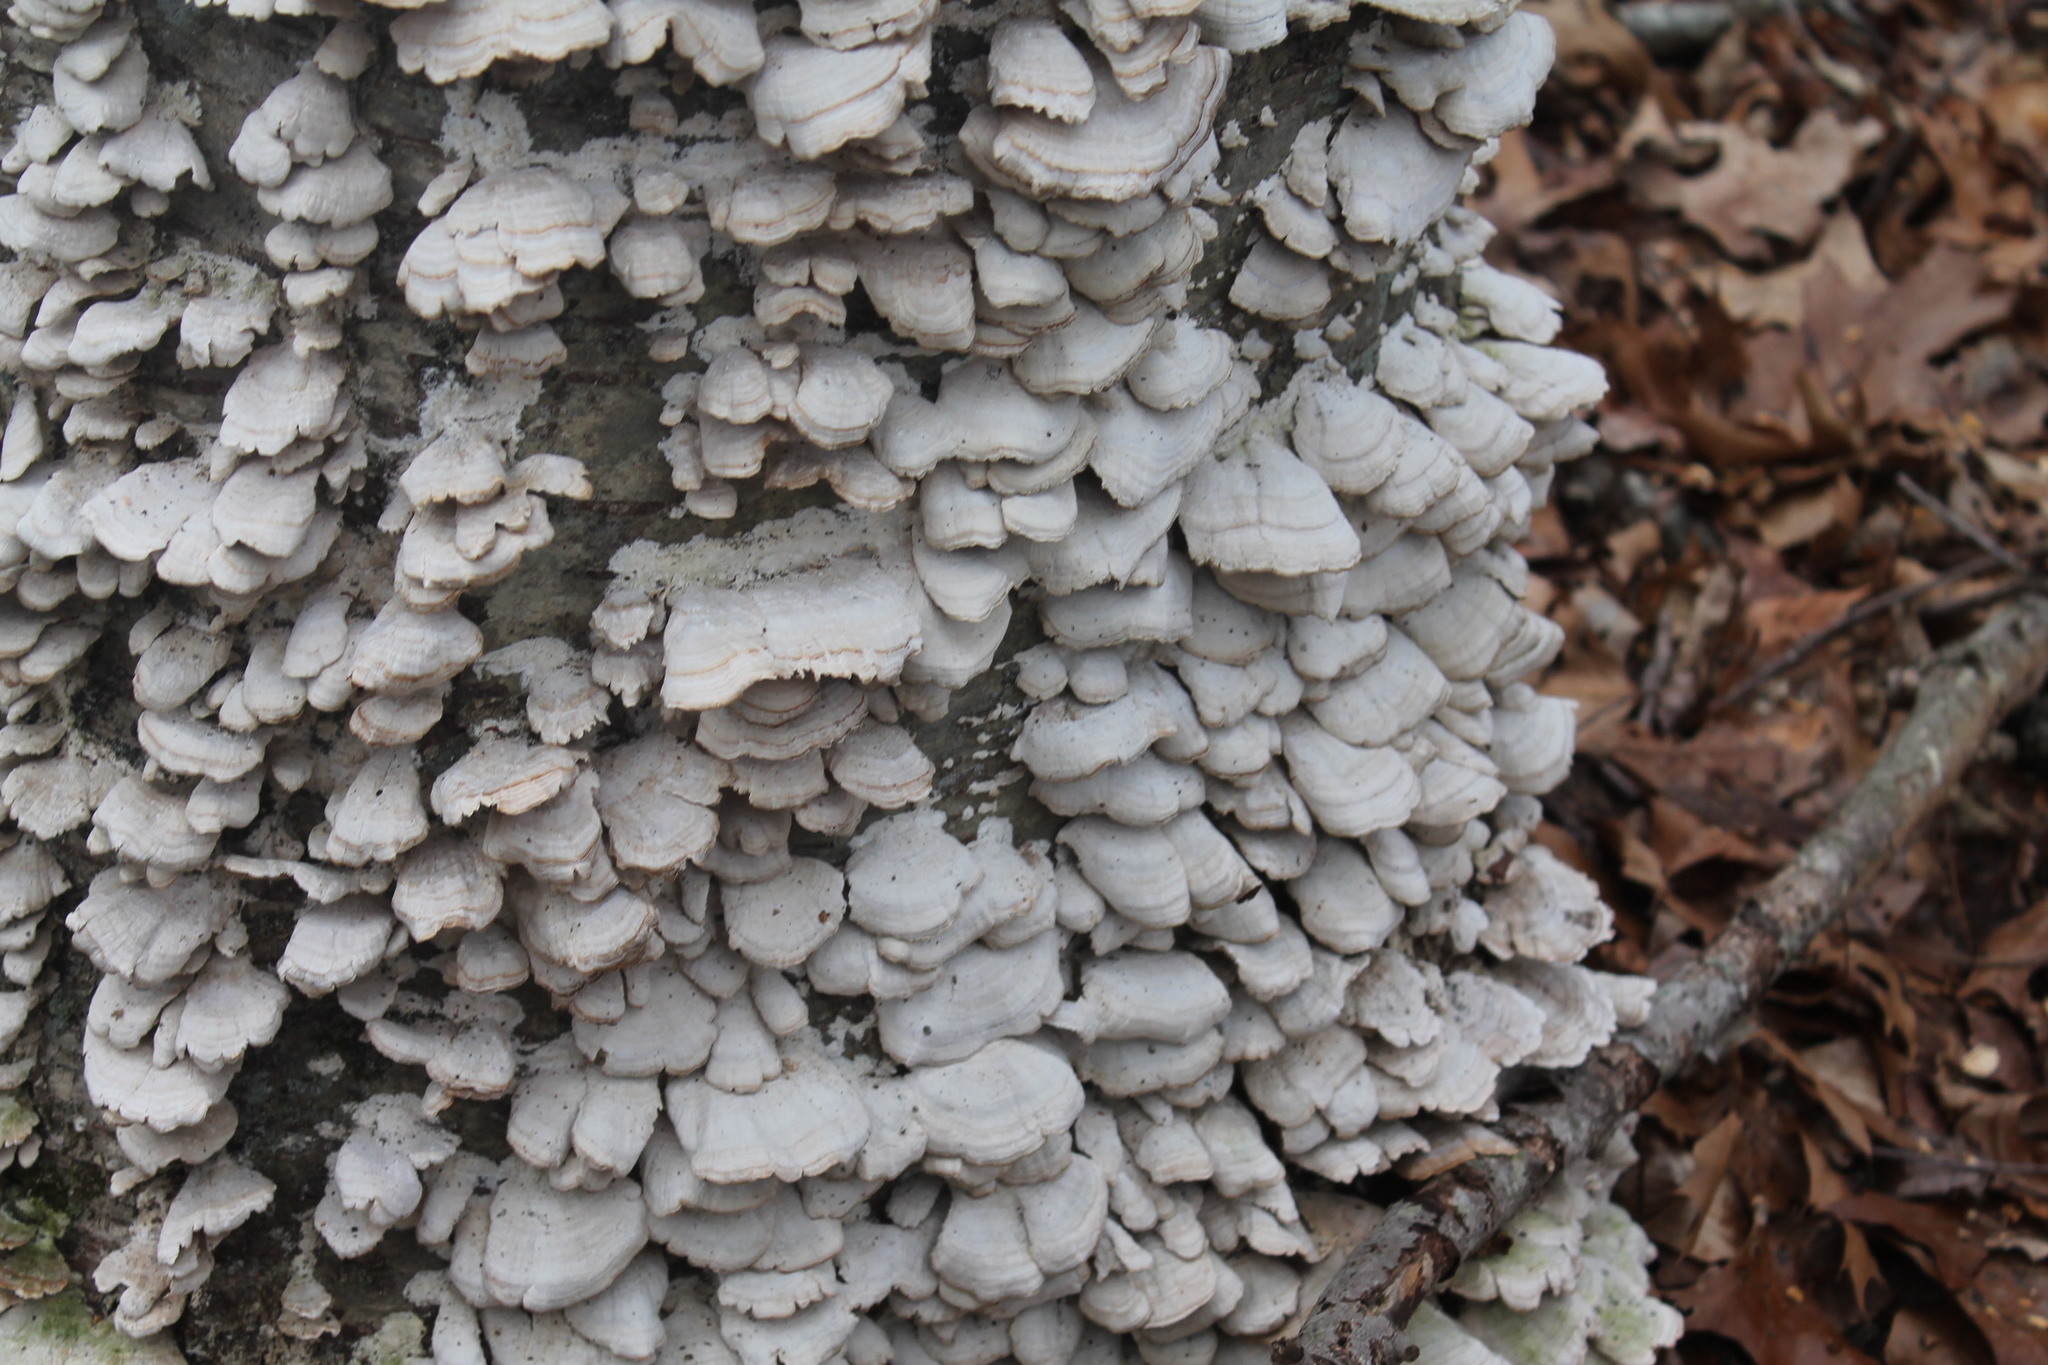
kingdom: Fungi
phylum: Basidiomycota
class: Agaricomycetes
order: Hymenochaetales
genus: Trichaptum
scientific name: Trichaptum biforme
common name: Violet-toothed polypore
